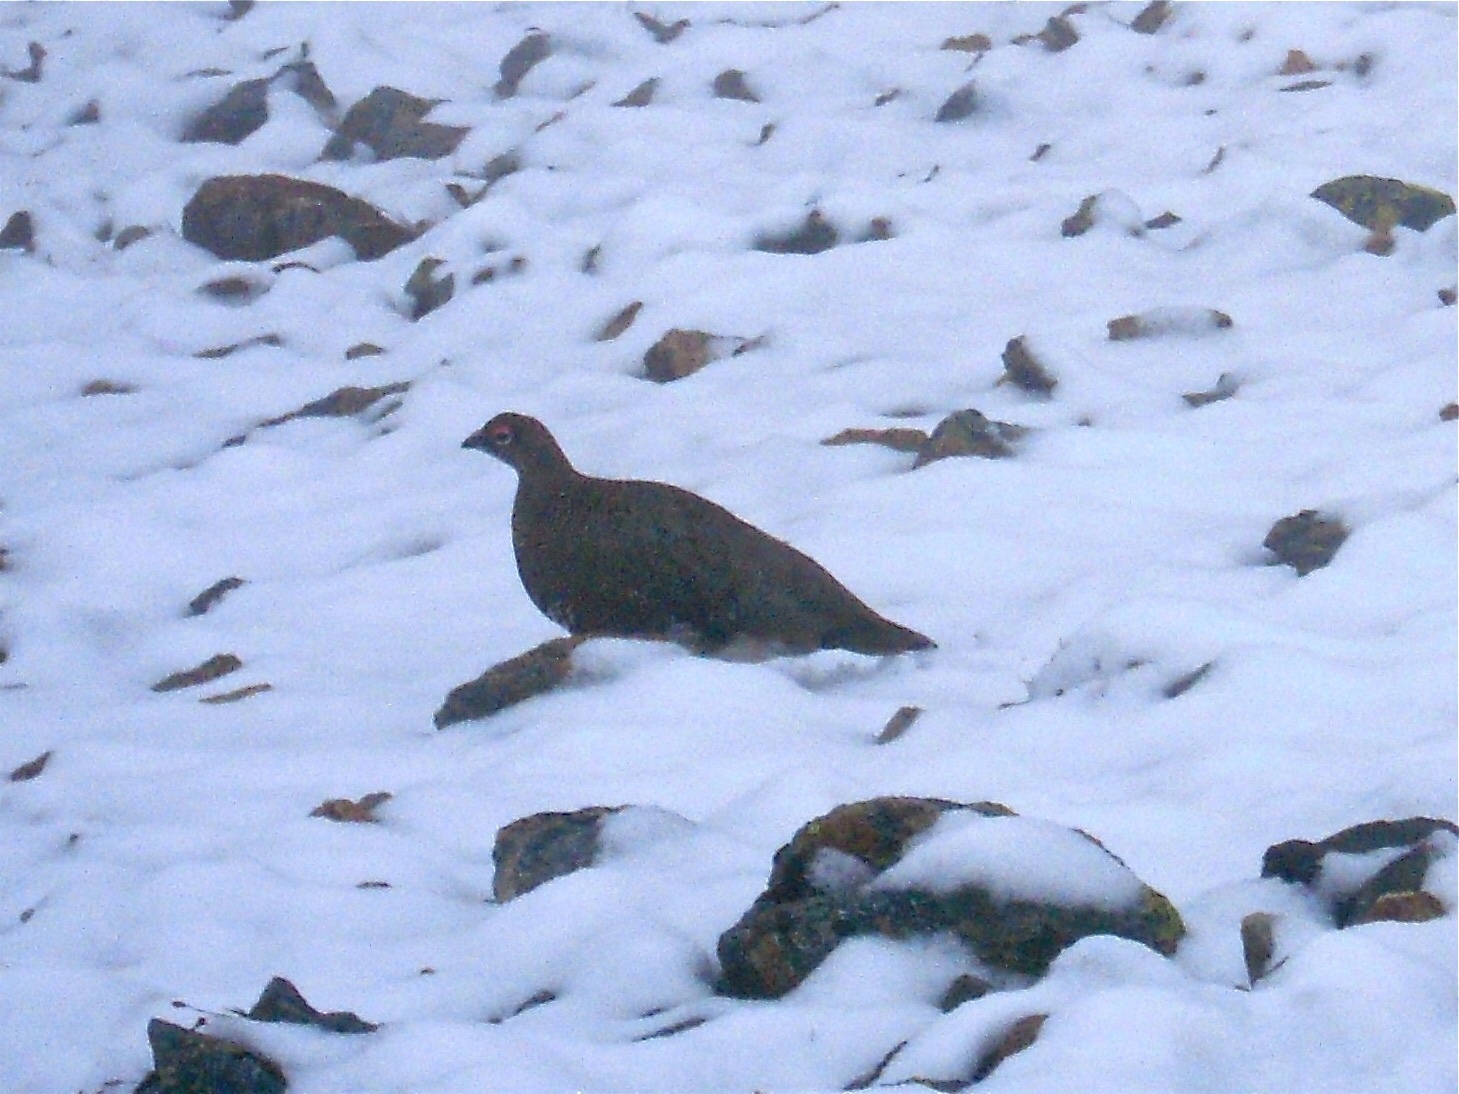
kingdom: Animalia
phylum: Chordata
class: Aves
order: Galliformes
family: Phasianidae
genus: Lagopus
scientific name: Lagopus muta
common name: Rock ptarmigan
